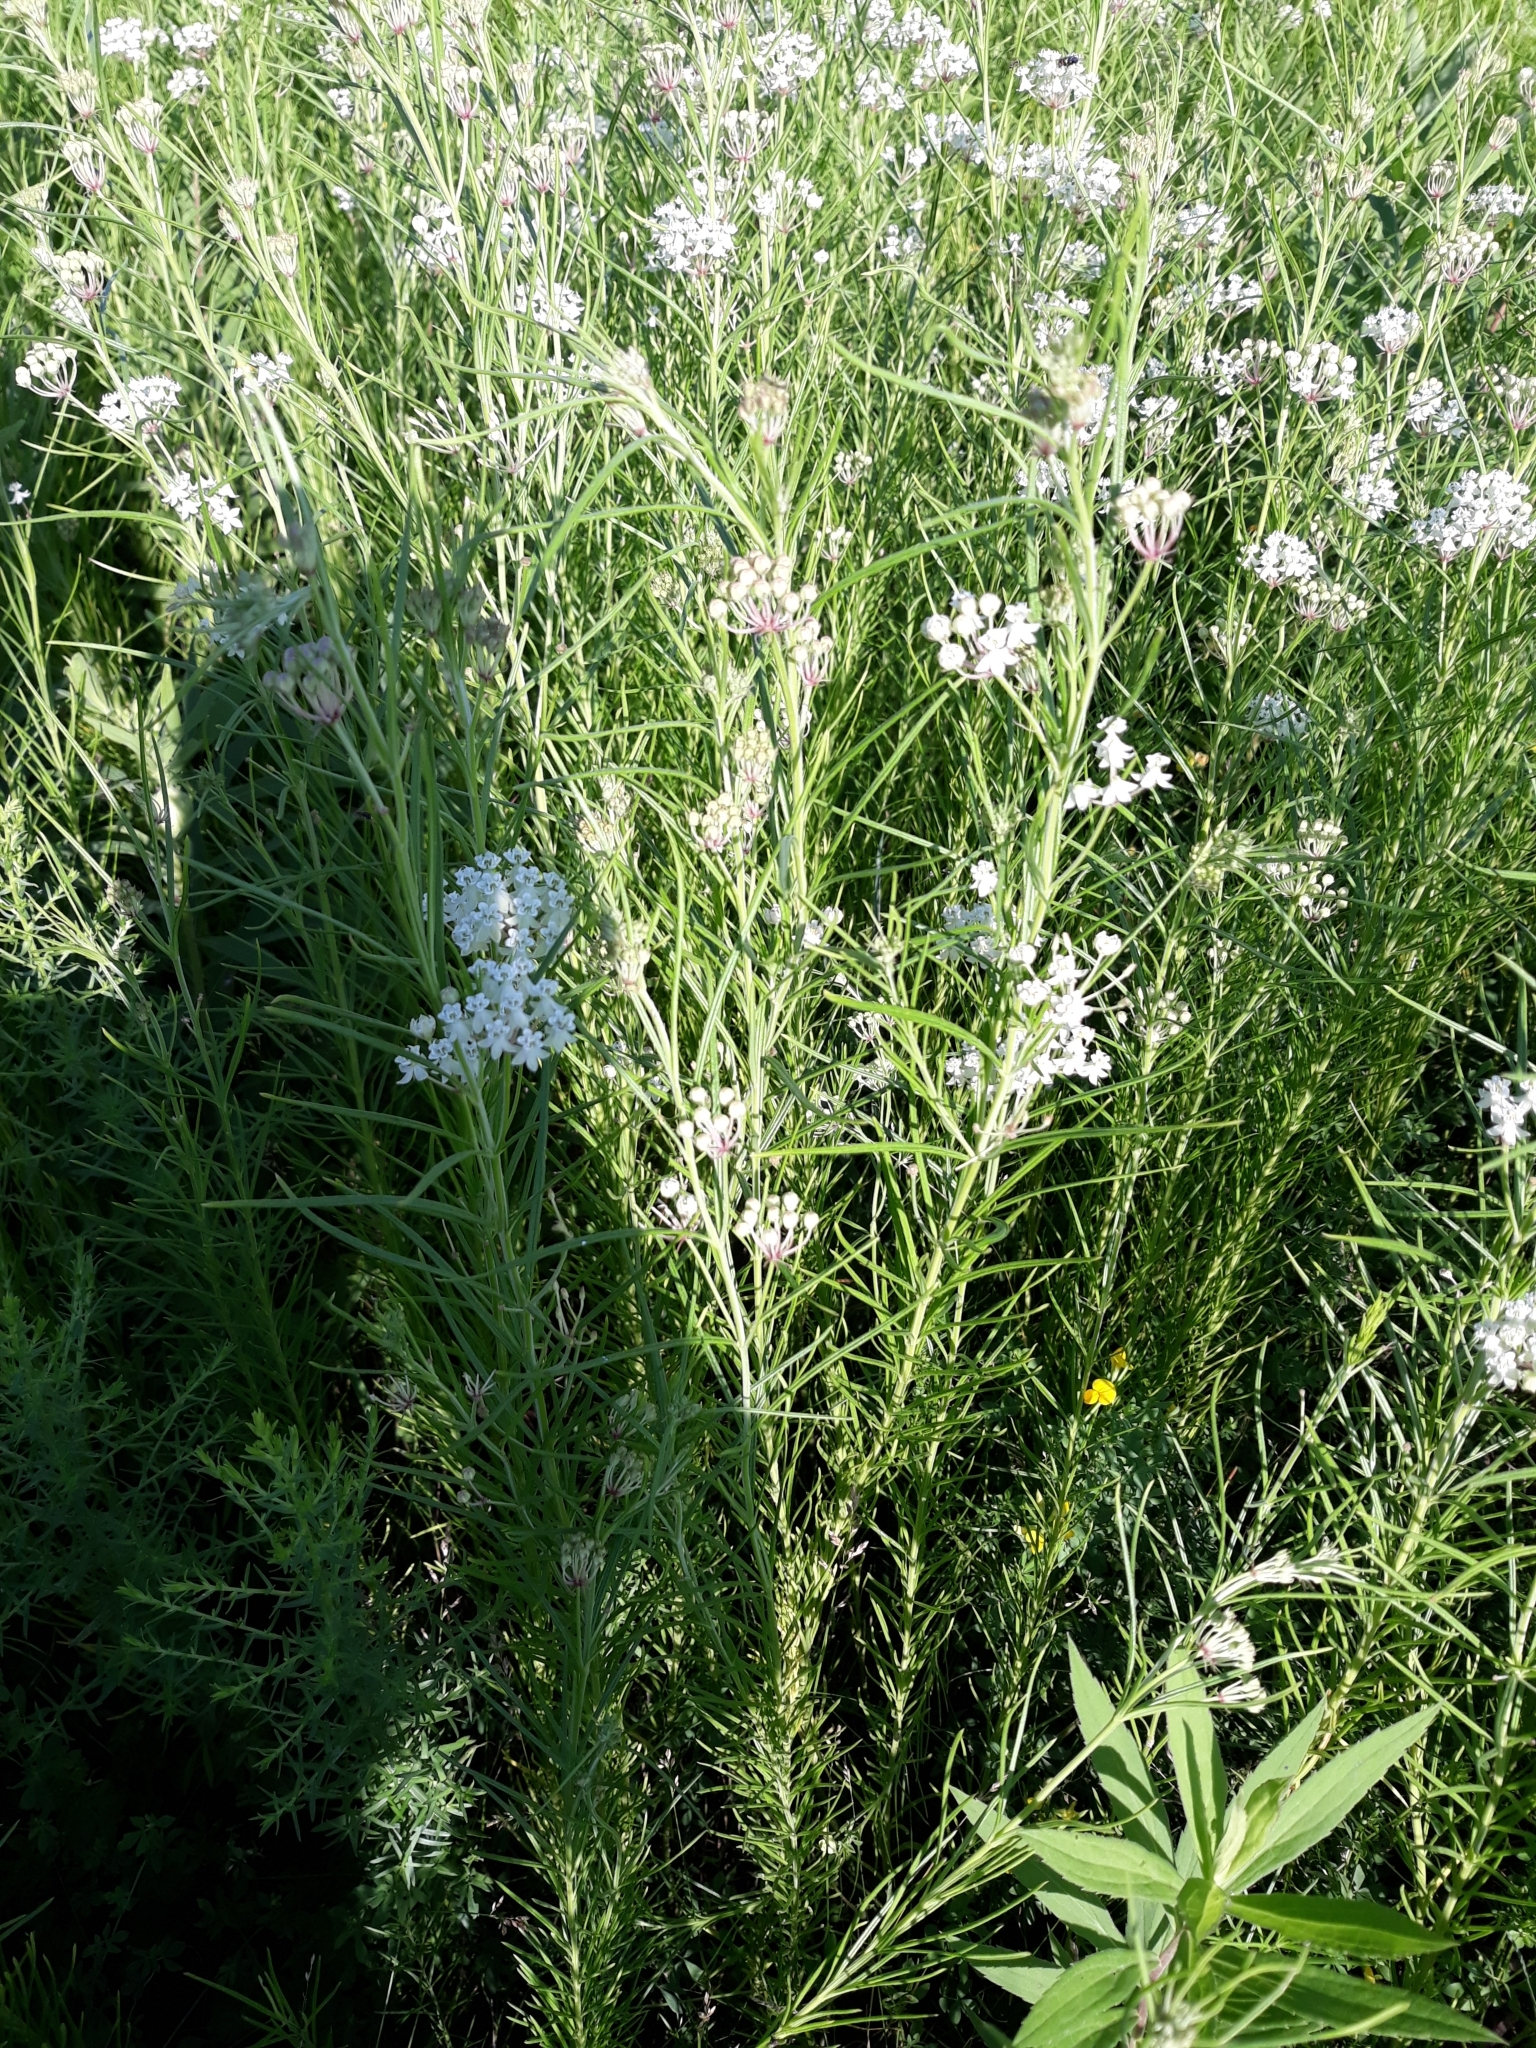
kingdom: Plantae
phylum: Tracheophyta
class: Magnoliopsida
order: Gentianales
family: Apocynaceae
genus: Asclepias
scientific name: Asclepias verticillata
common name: Eastern whorled milkweed
